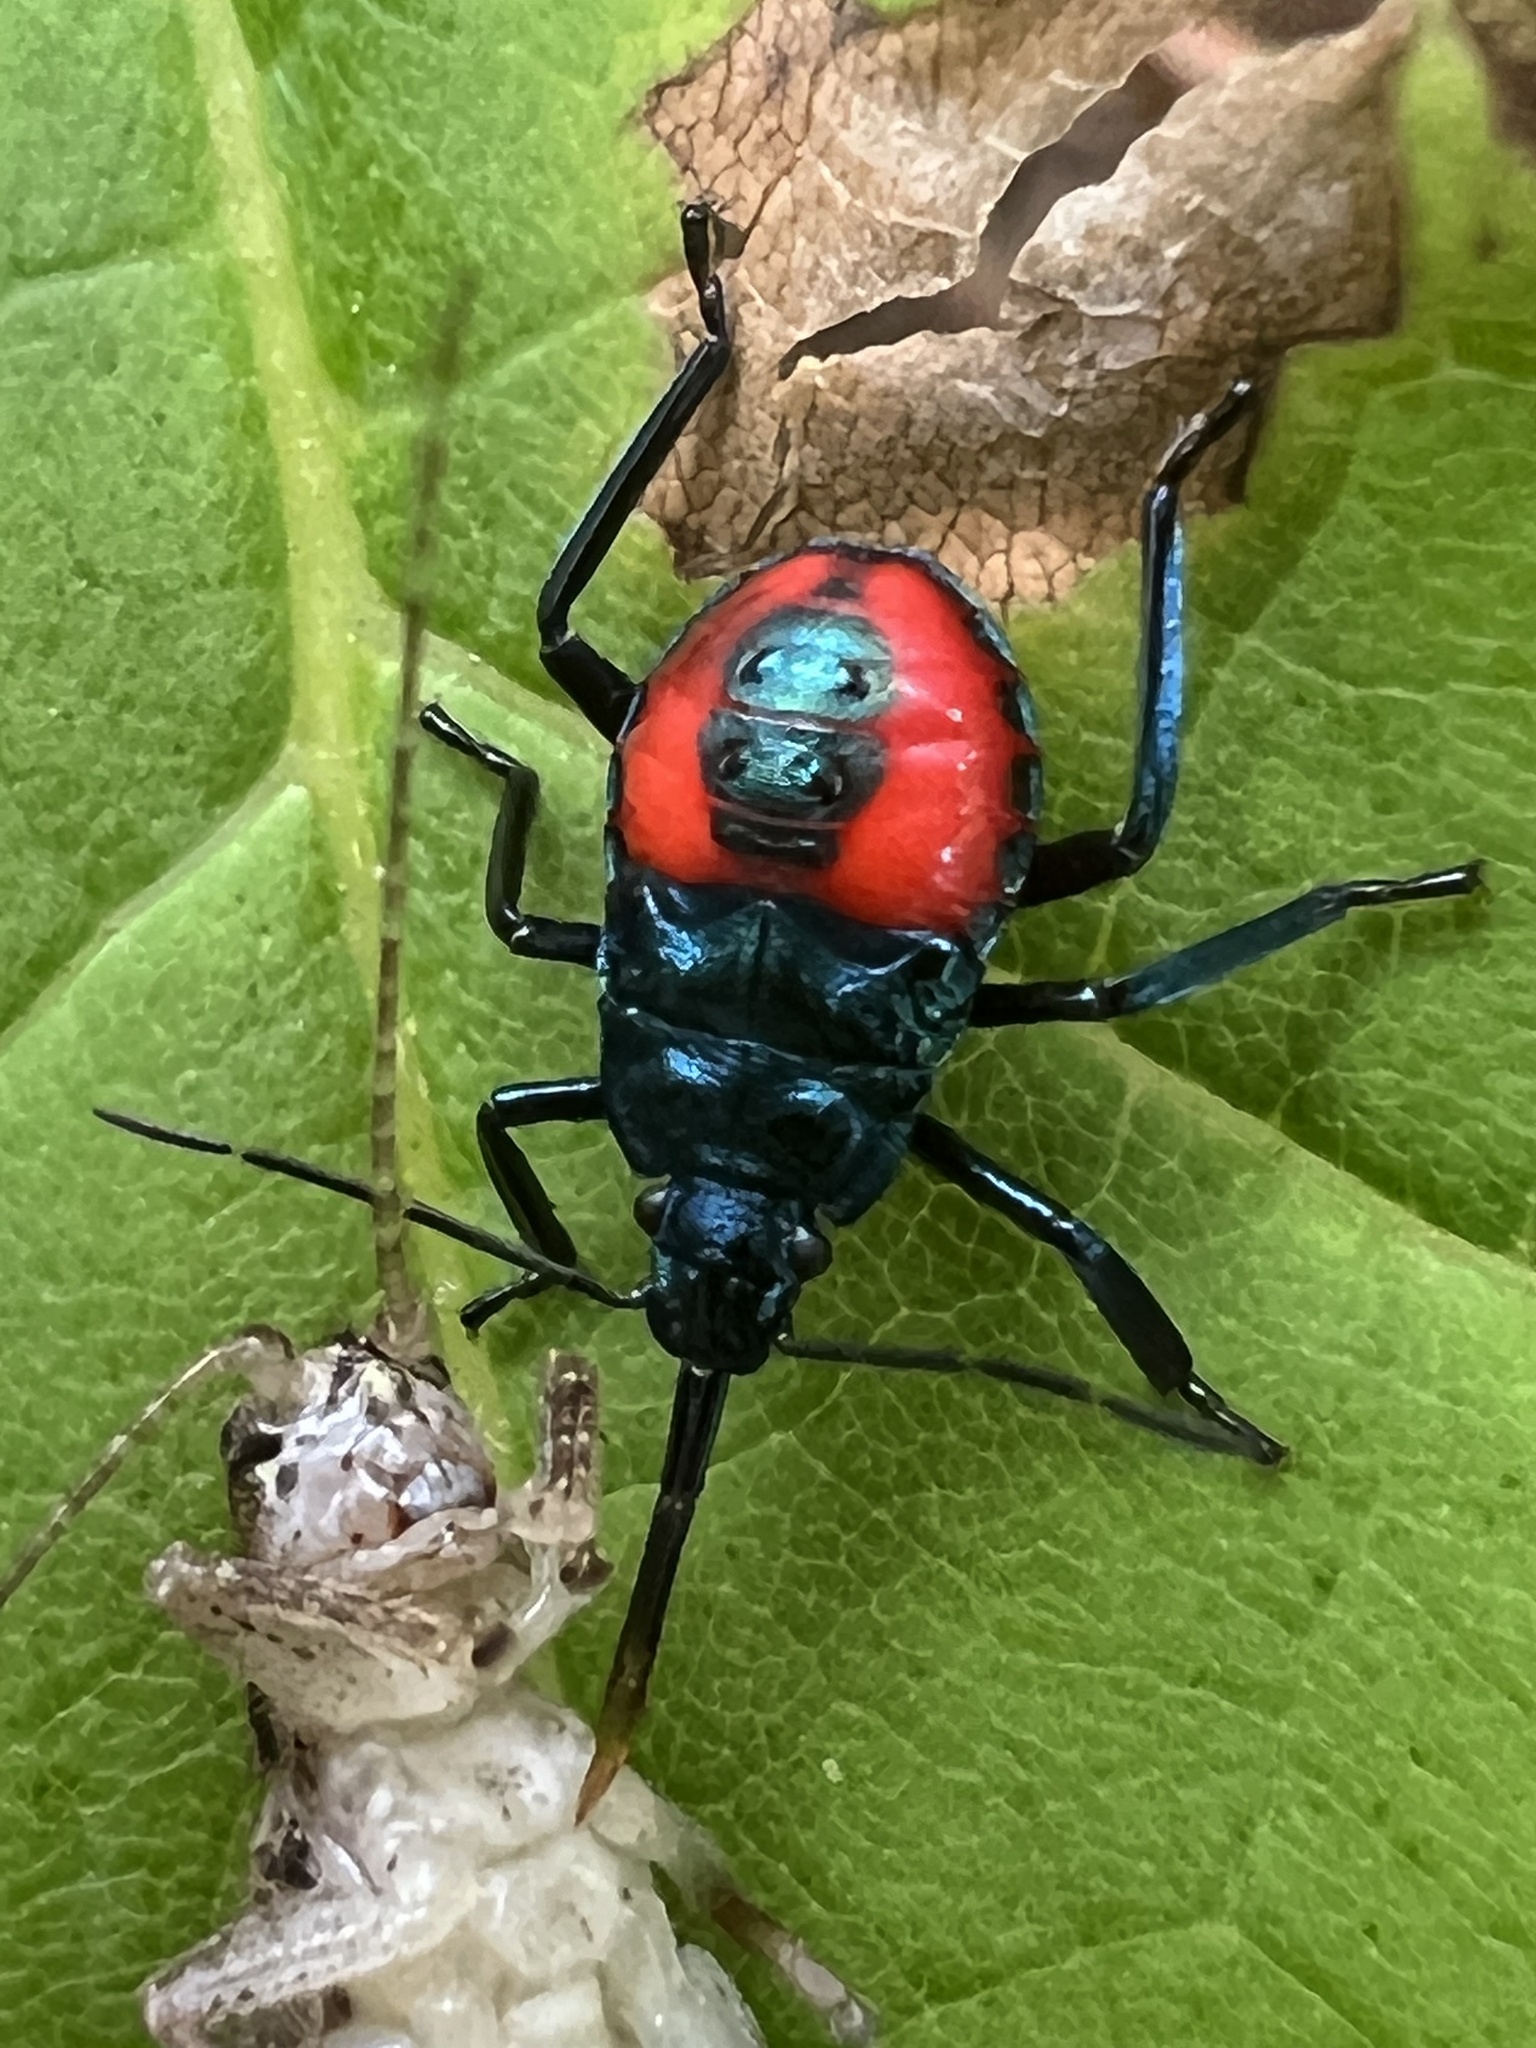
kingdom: Animalia
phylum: Arthropoda
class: Insecta
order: Hemiptera
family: Pentatomidae
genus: Euthyrhynchus
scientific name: Euthyrhynchus floridanus
